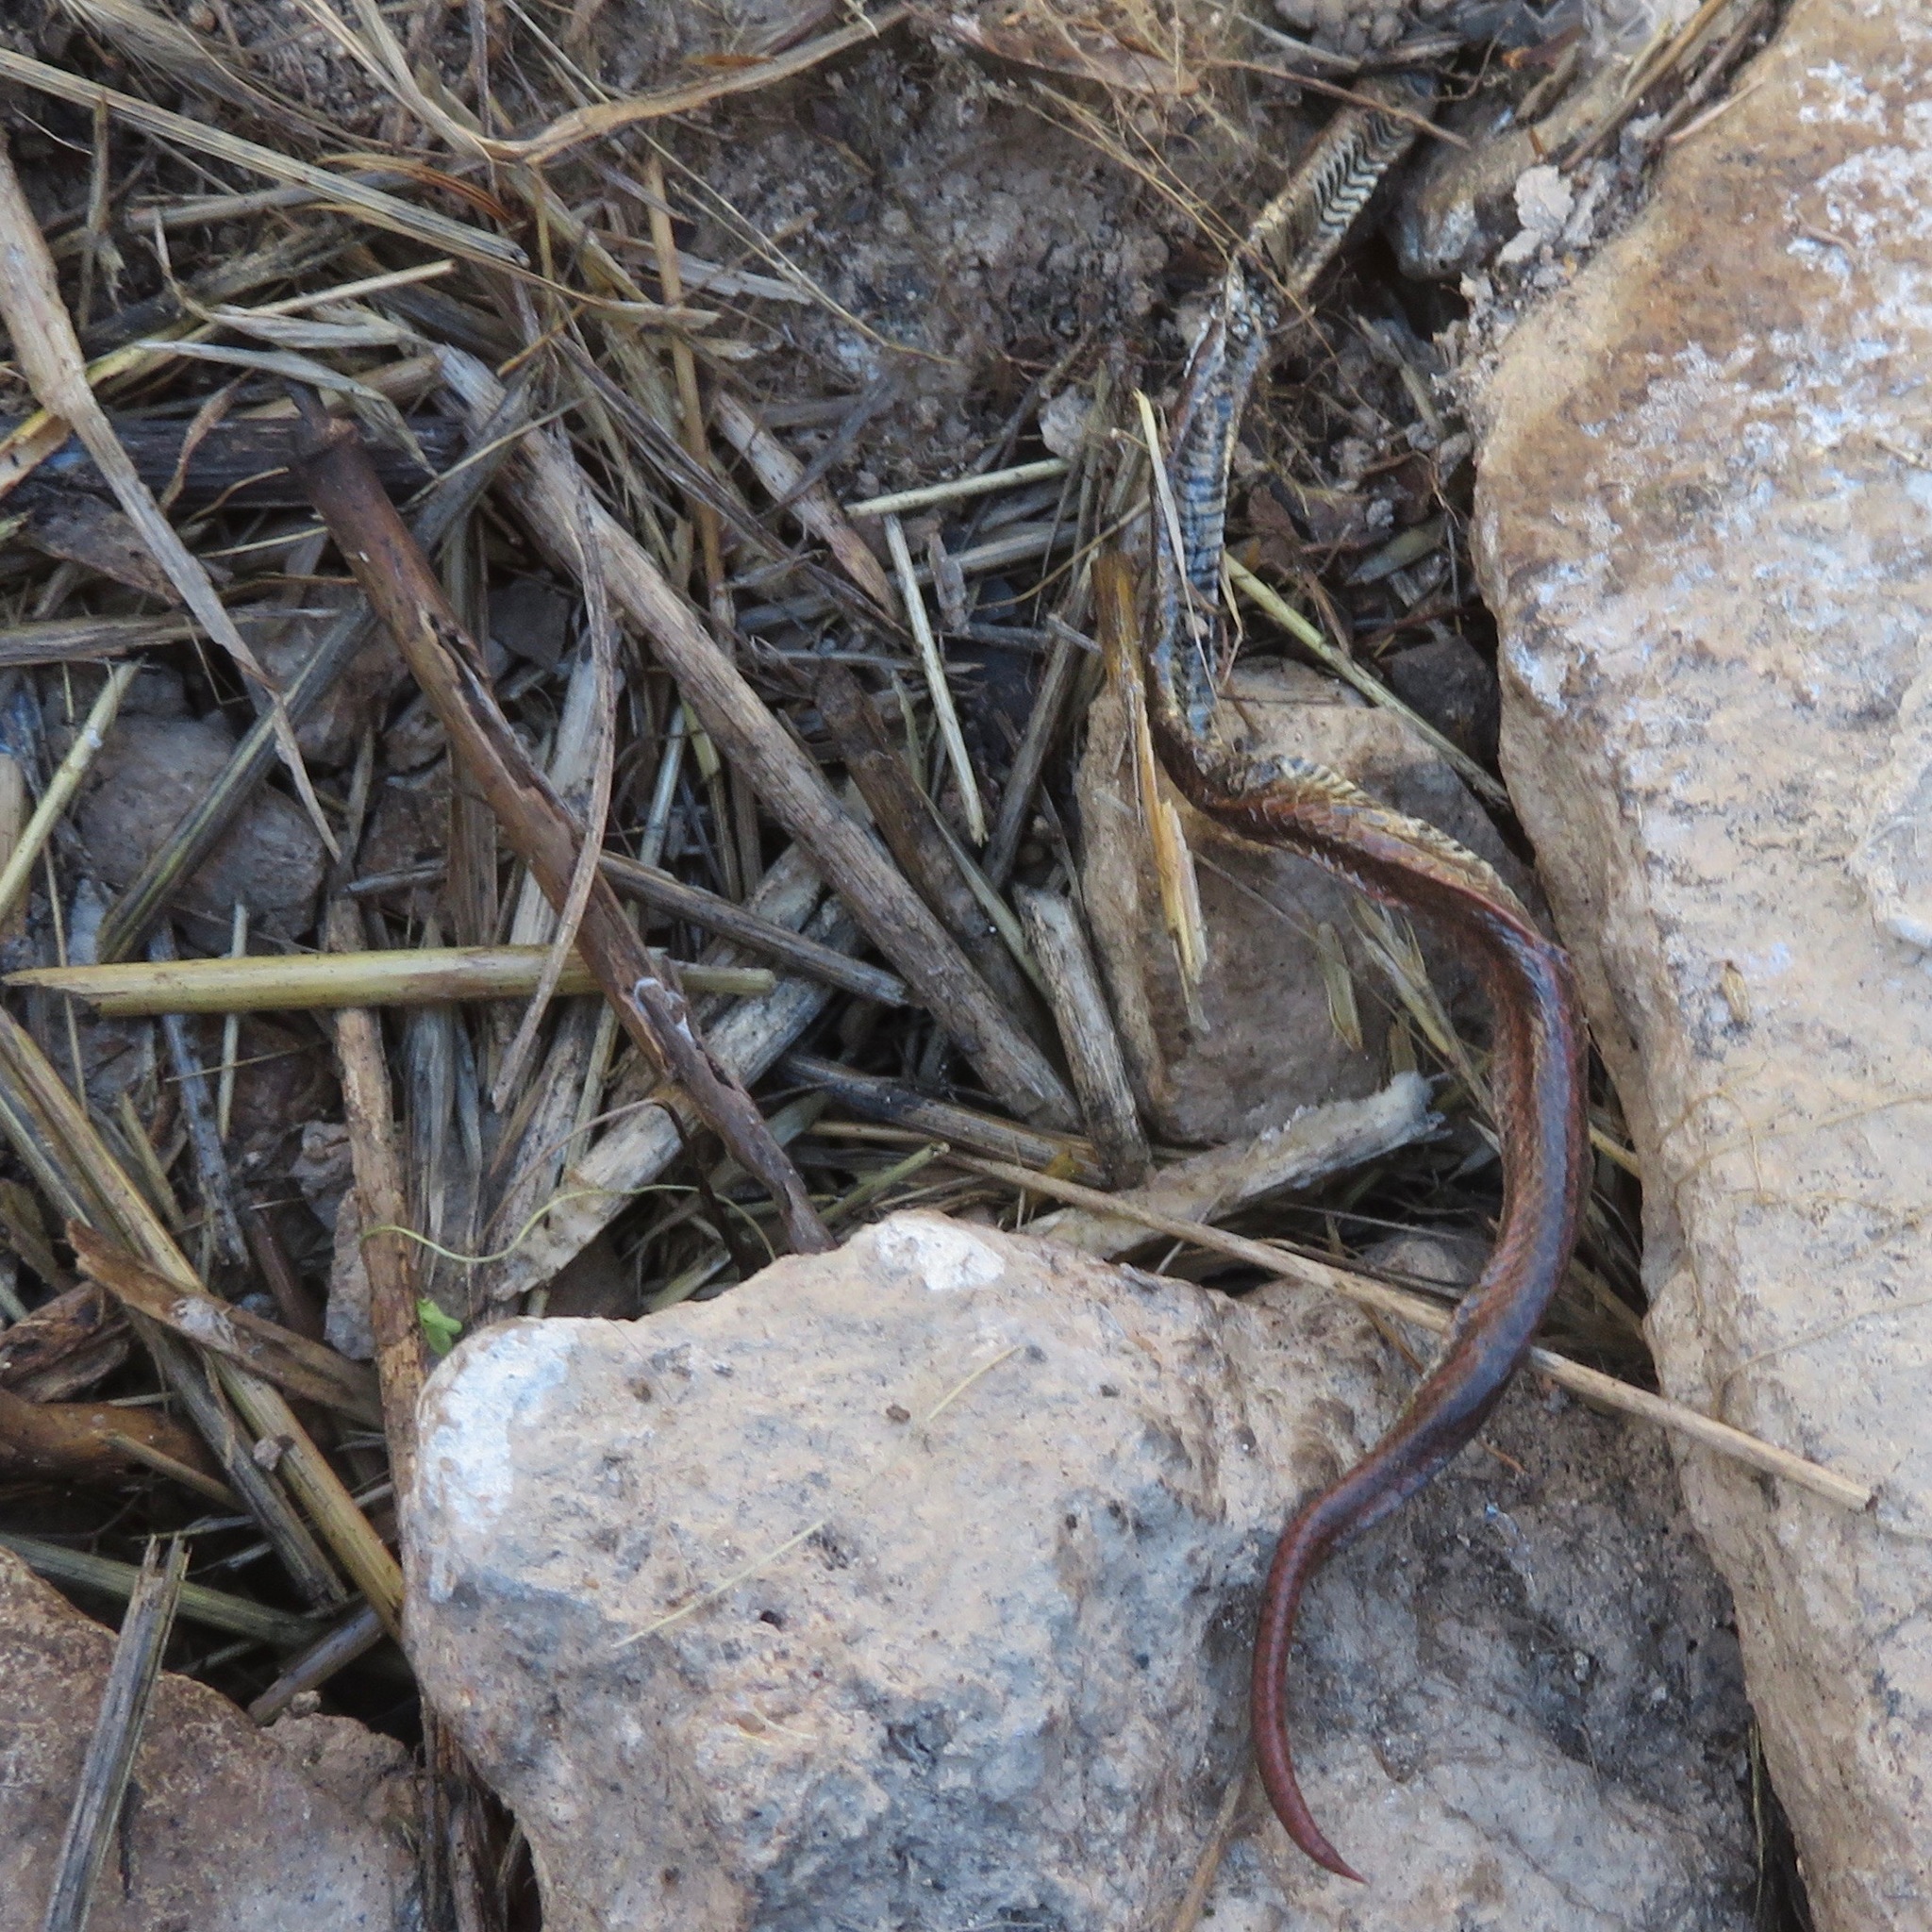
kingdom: Animalia
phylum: Chordata
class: Squamata
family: Colubridae
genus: Contia
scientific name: Contia tenuis
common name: Sharptail snake
